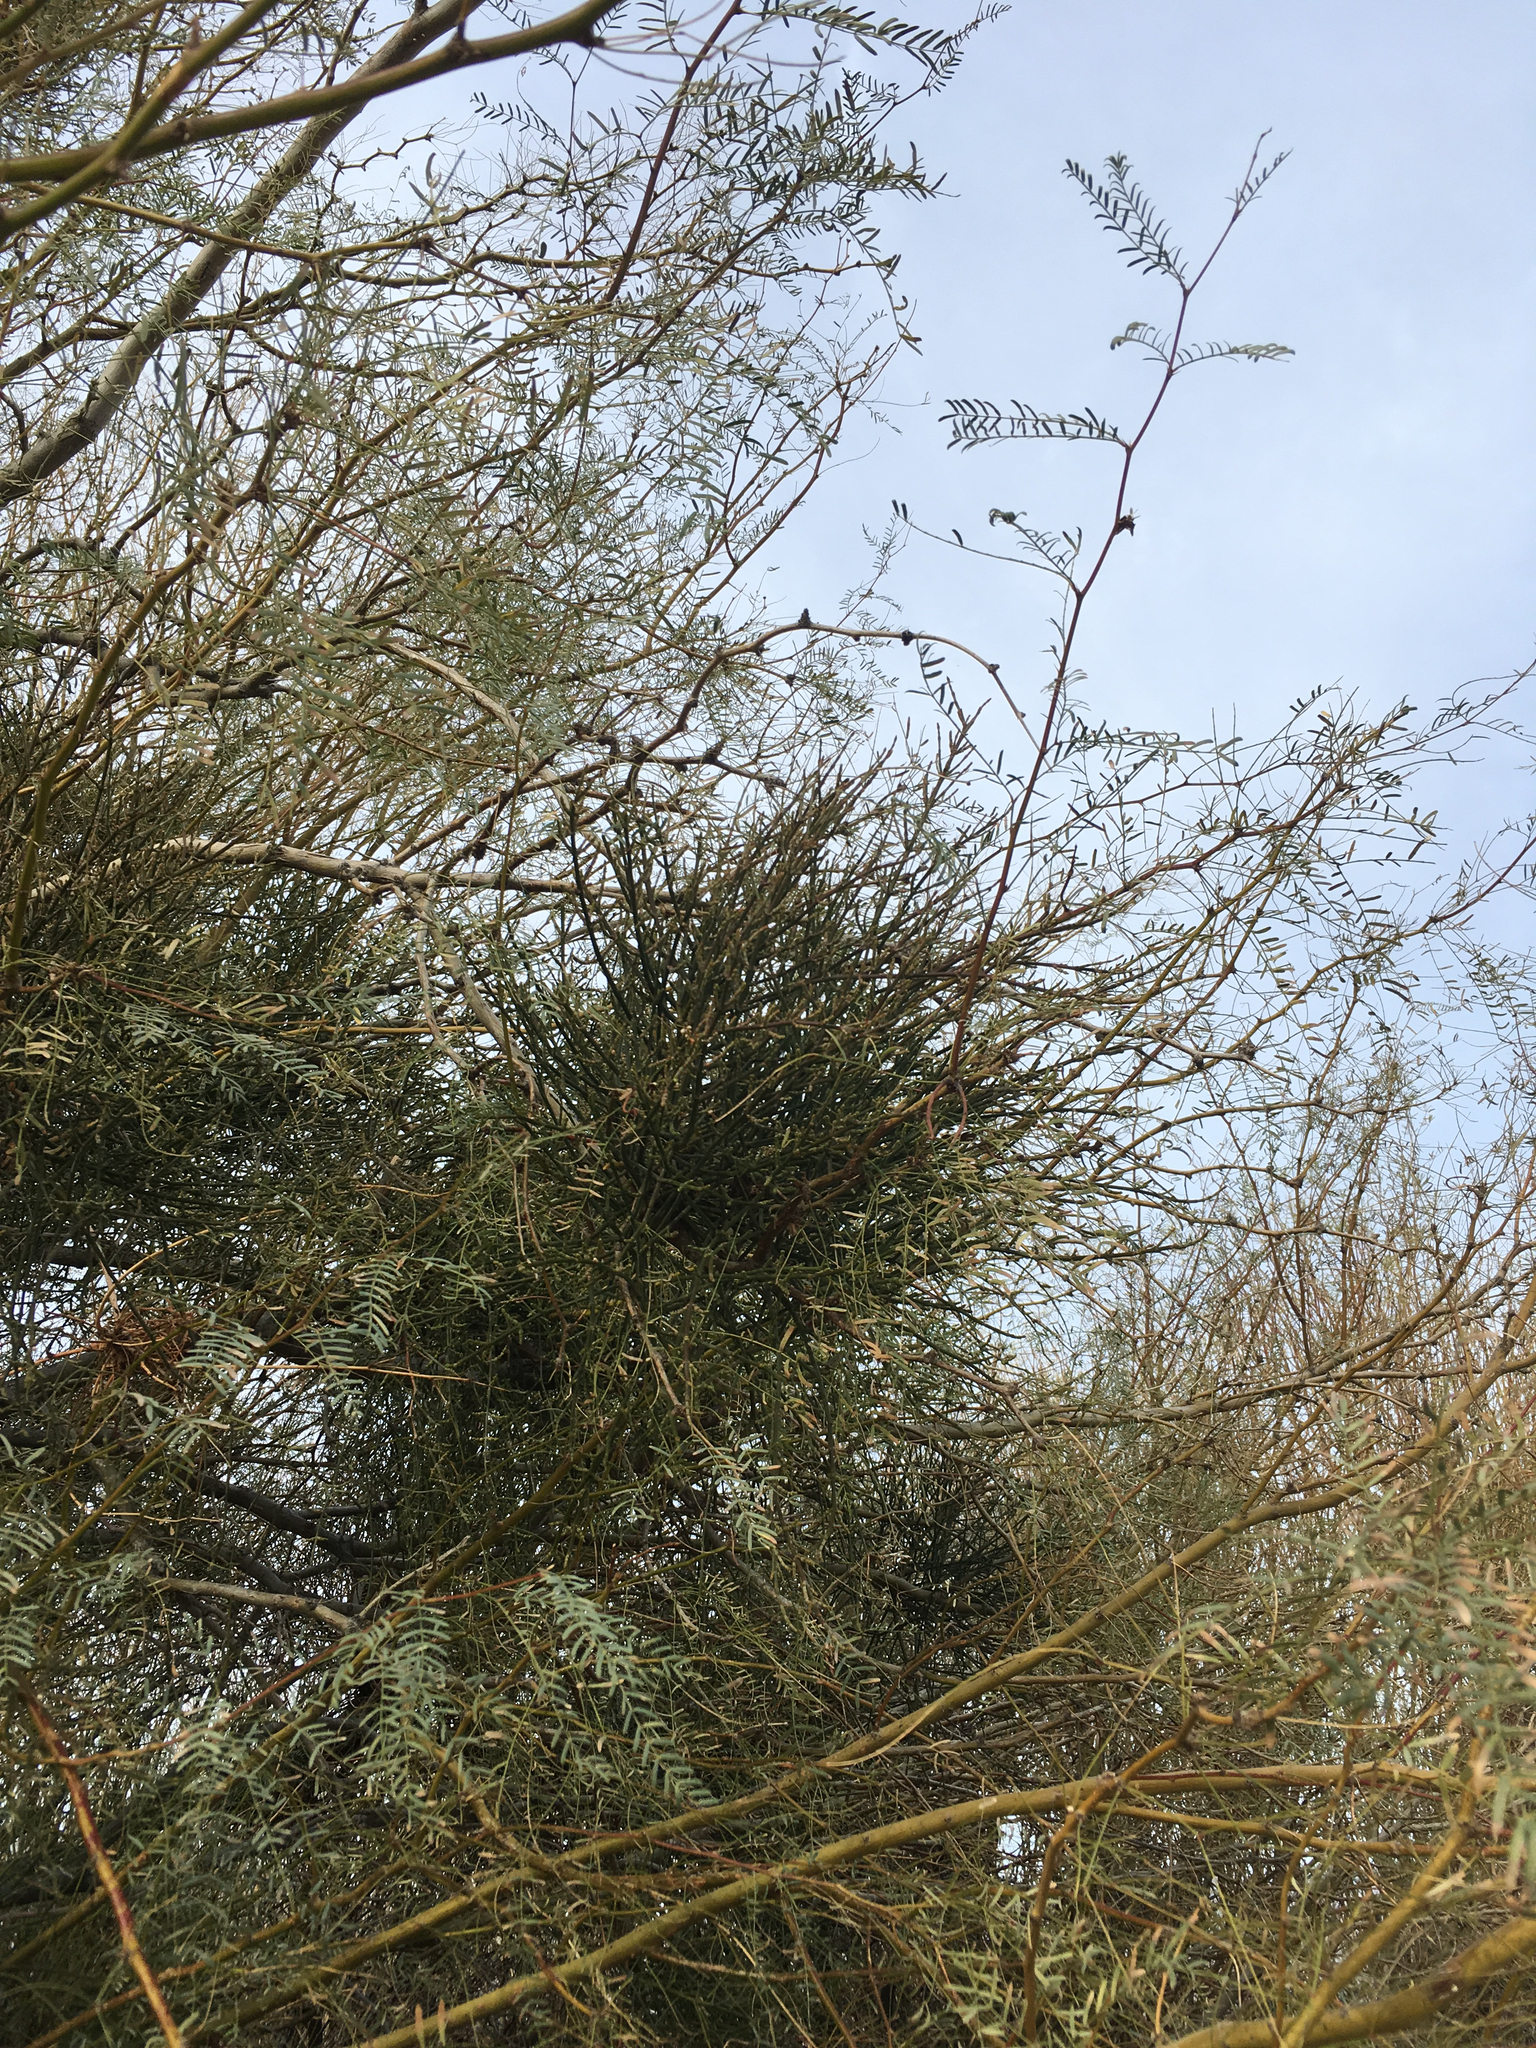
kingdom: Plantae
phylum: Tracheophyta
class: Magnoliopsida
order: Santalales
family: Viscaceae
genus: Phoradendron
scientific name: Phoradendron californicum
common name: Acacia mistletoe
